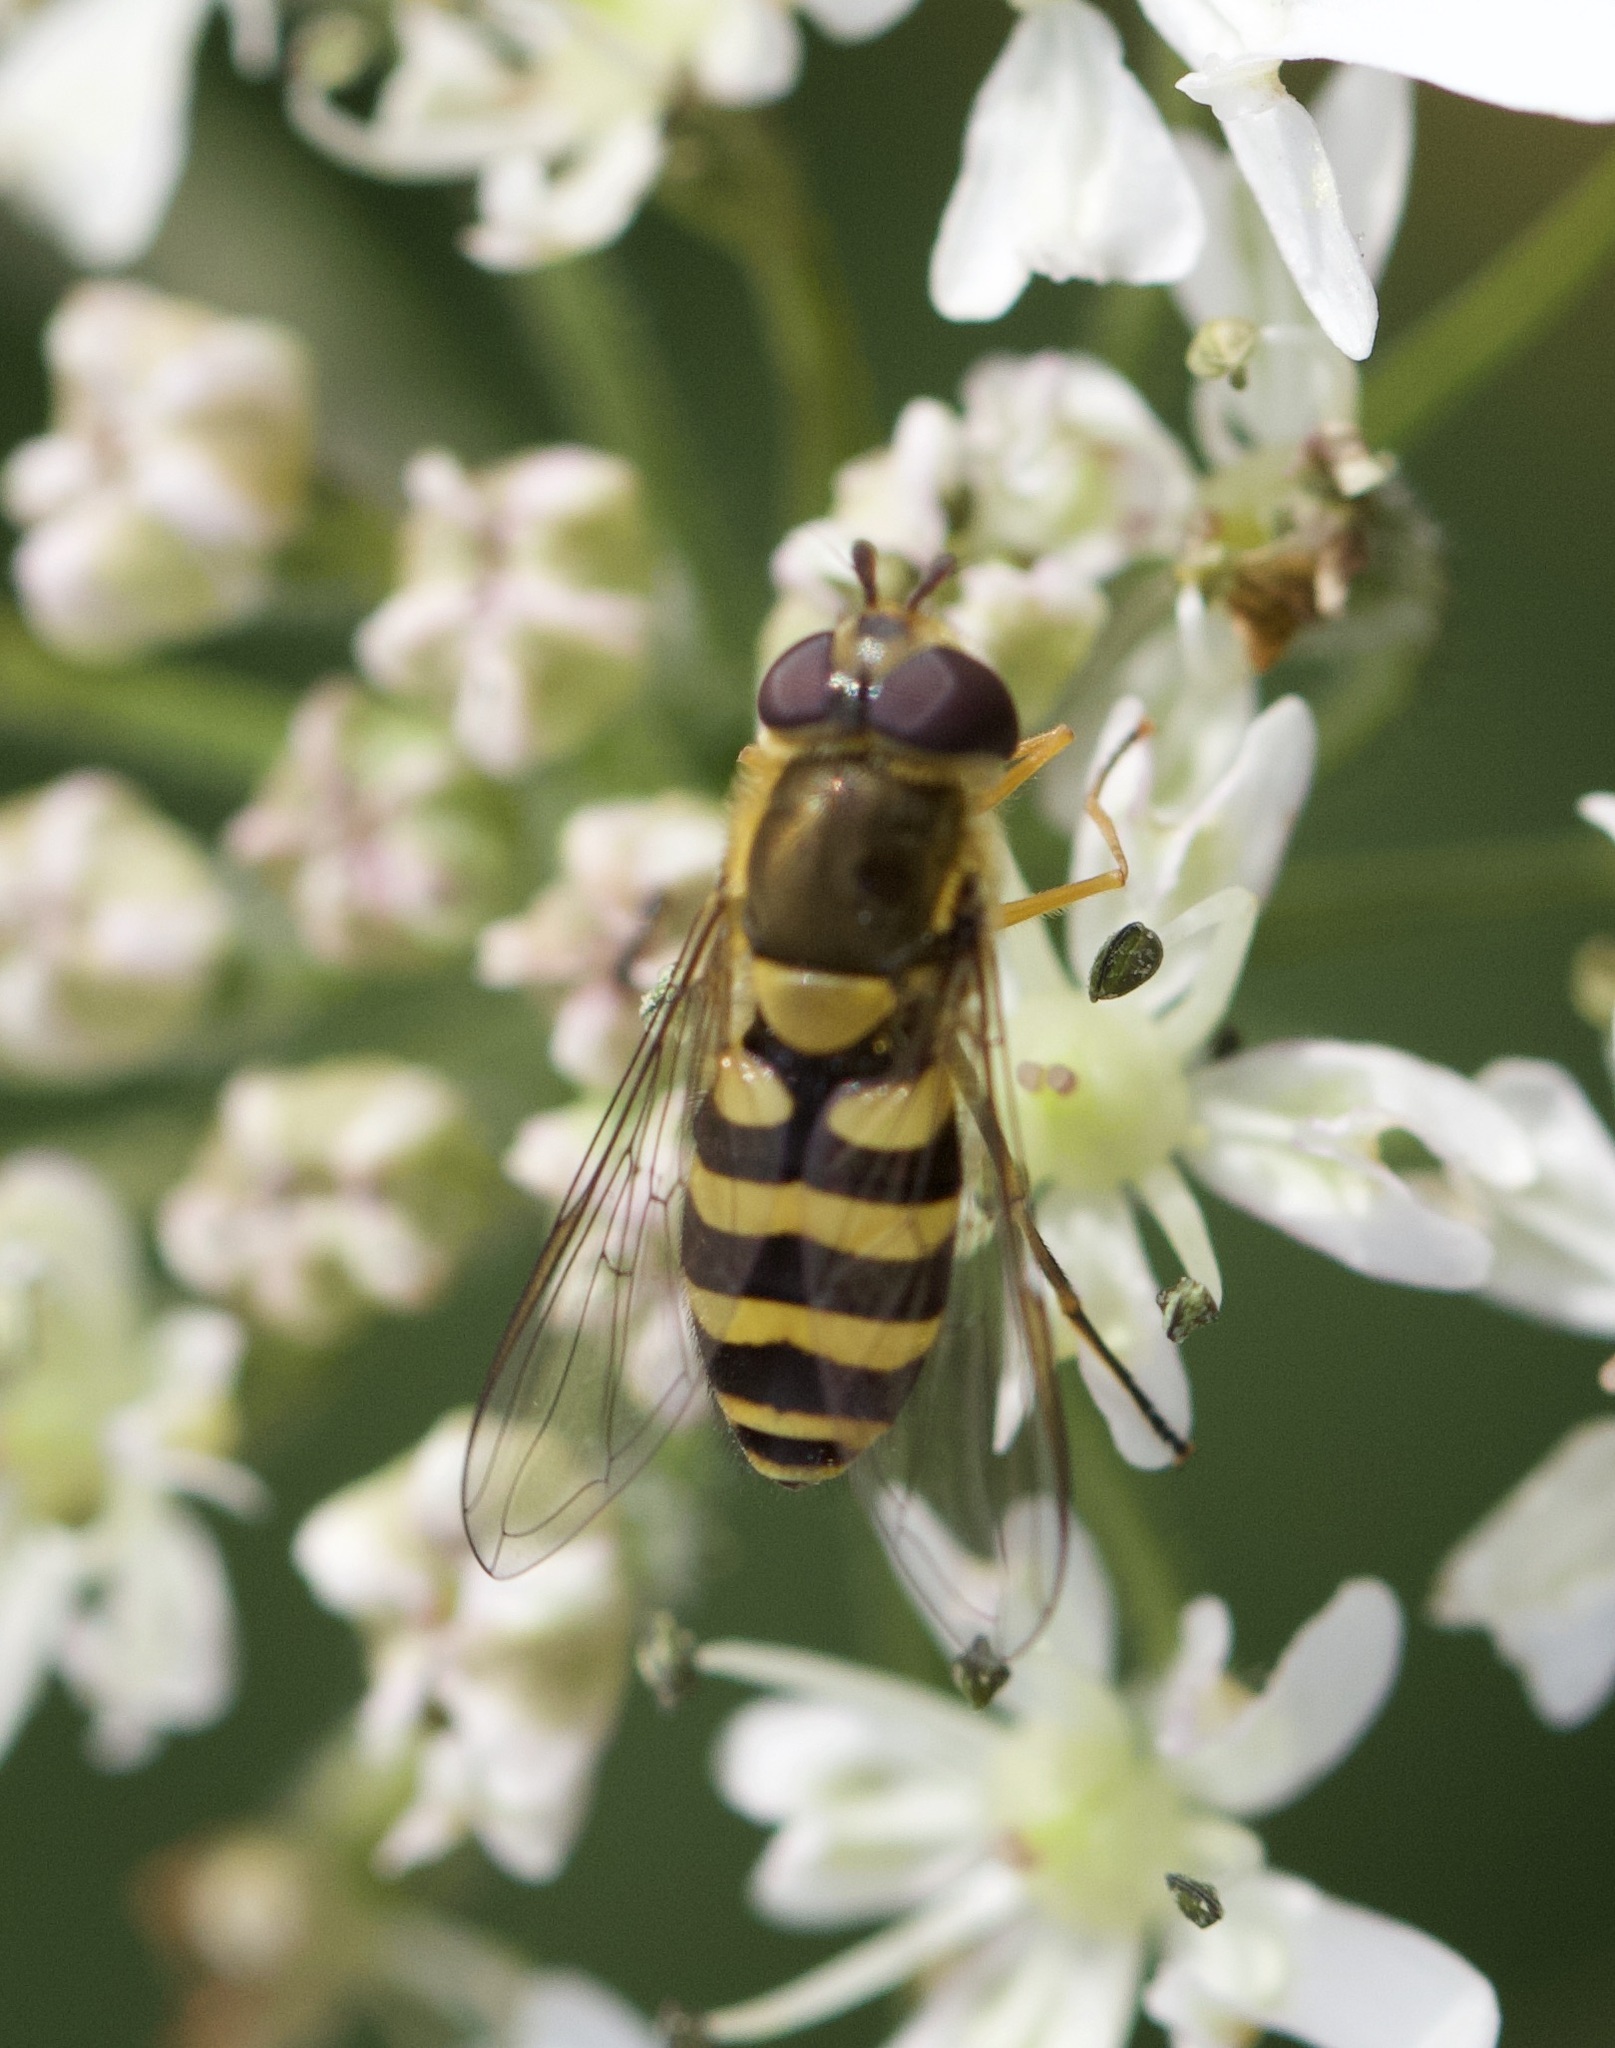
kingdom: Animalia
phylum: Arthropoda
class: Insecta
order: Diptera
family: Syrphidae
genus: Syrphus
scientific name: Syrphus
